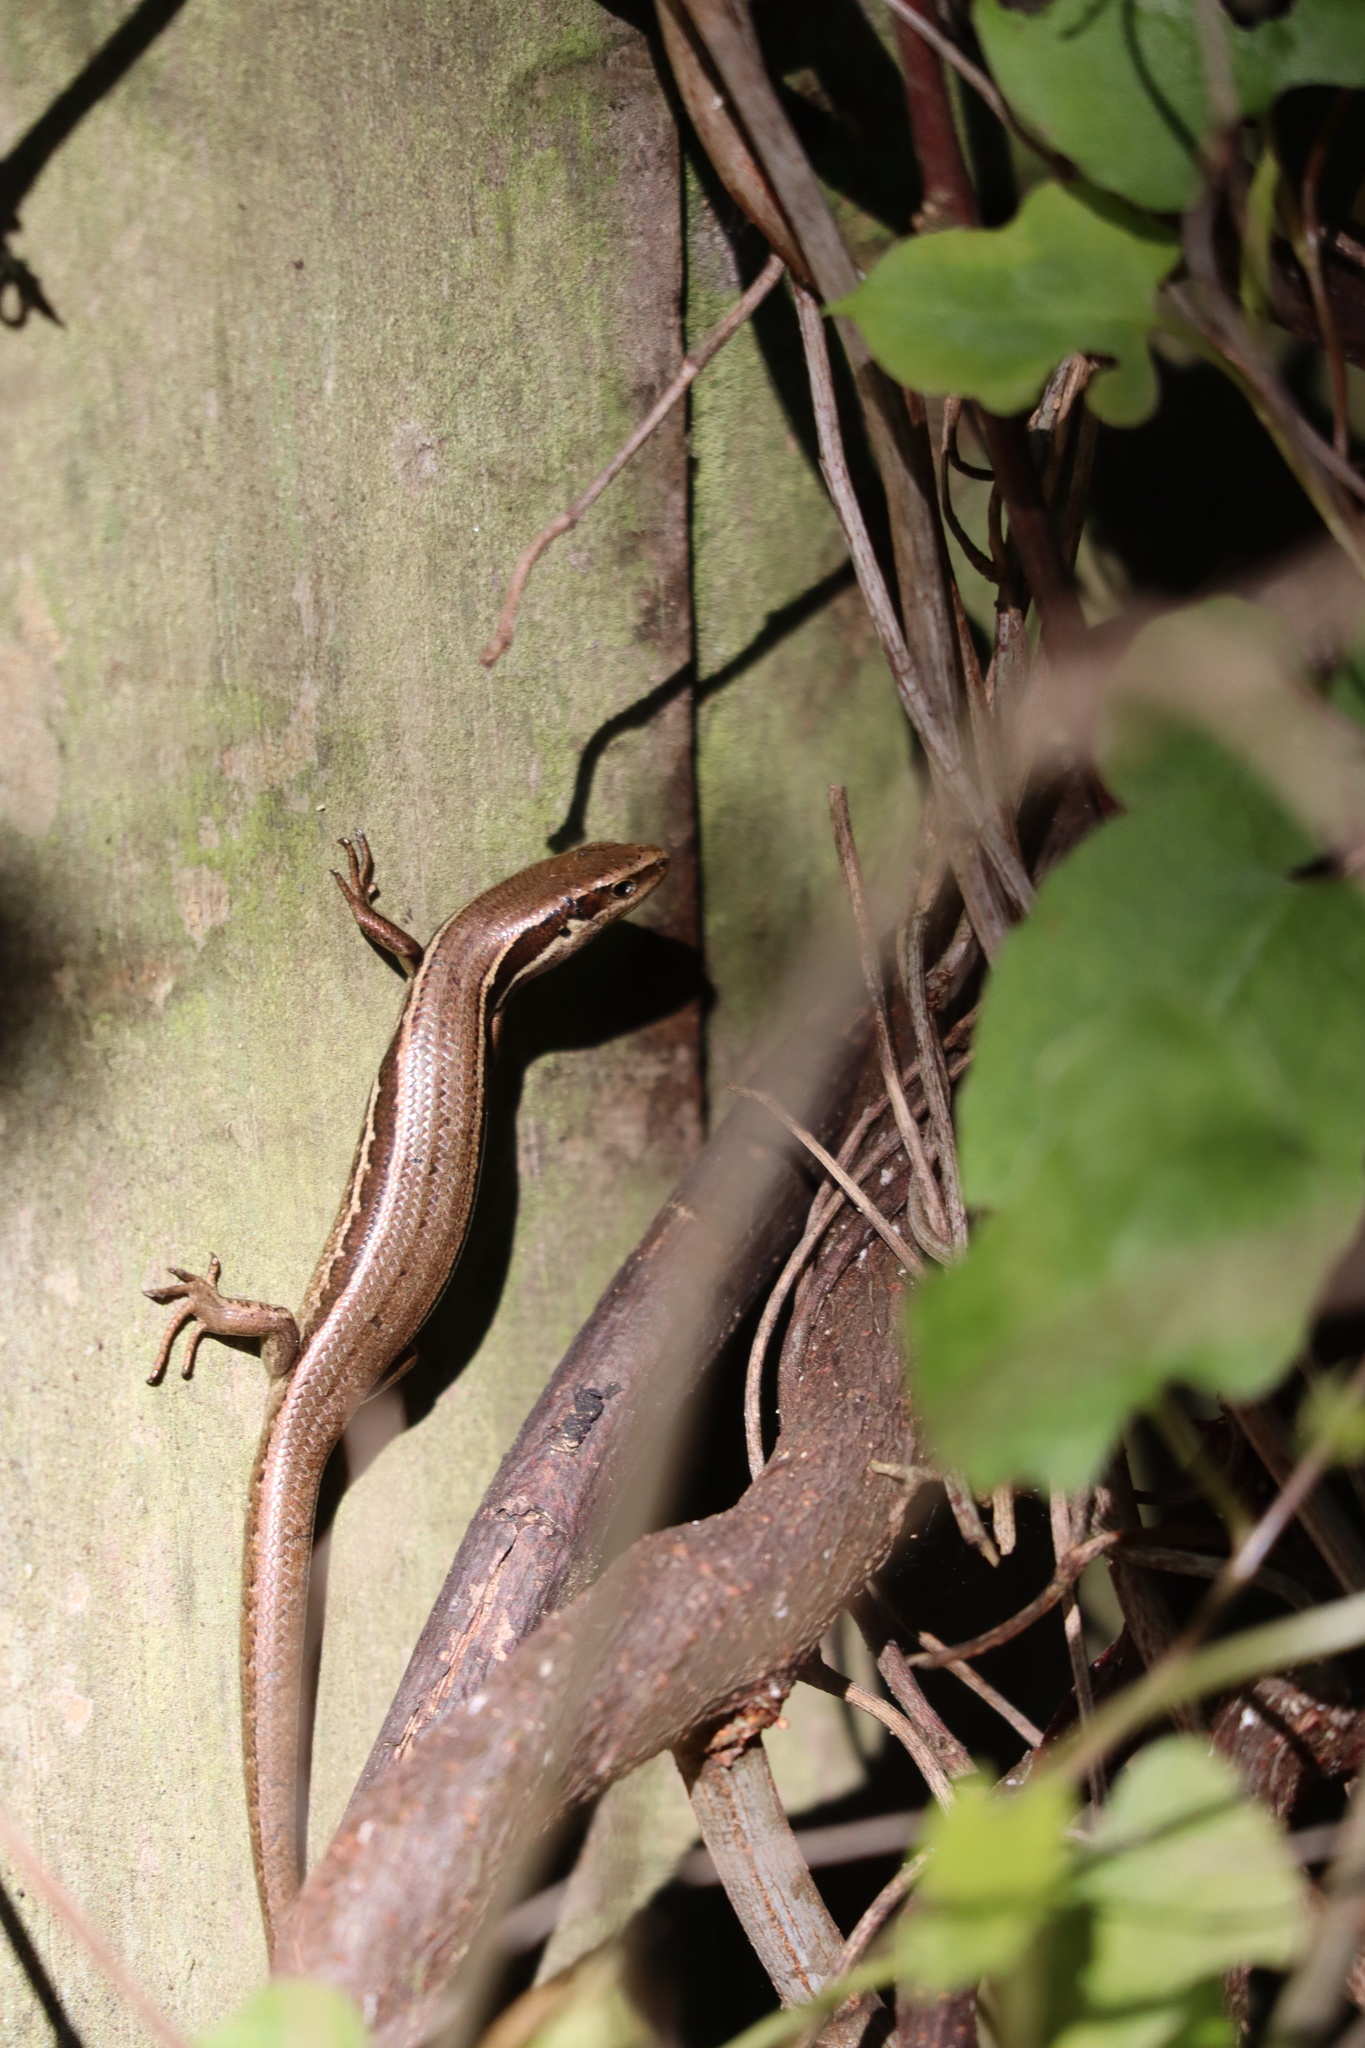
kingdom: Animalia
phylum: Chordata
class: Squamata
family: Scincidae
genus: Oligosoma
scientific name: Oligosoma polychroma
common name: Common new zealand skink
